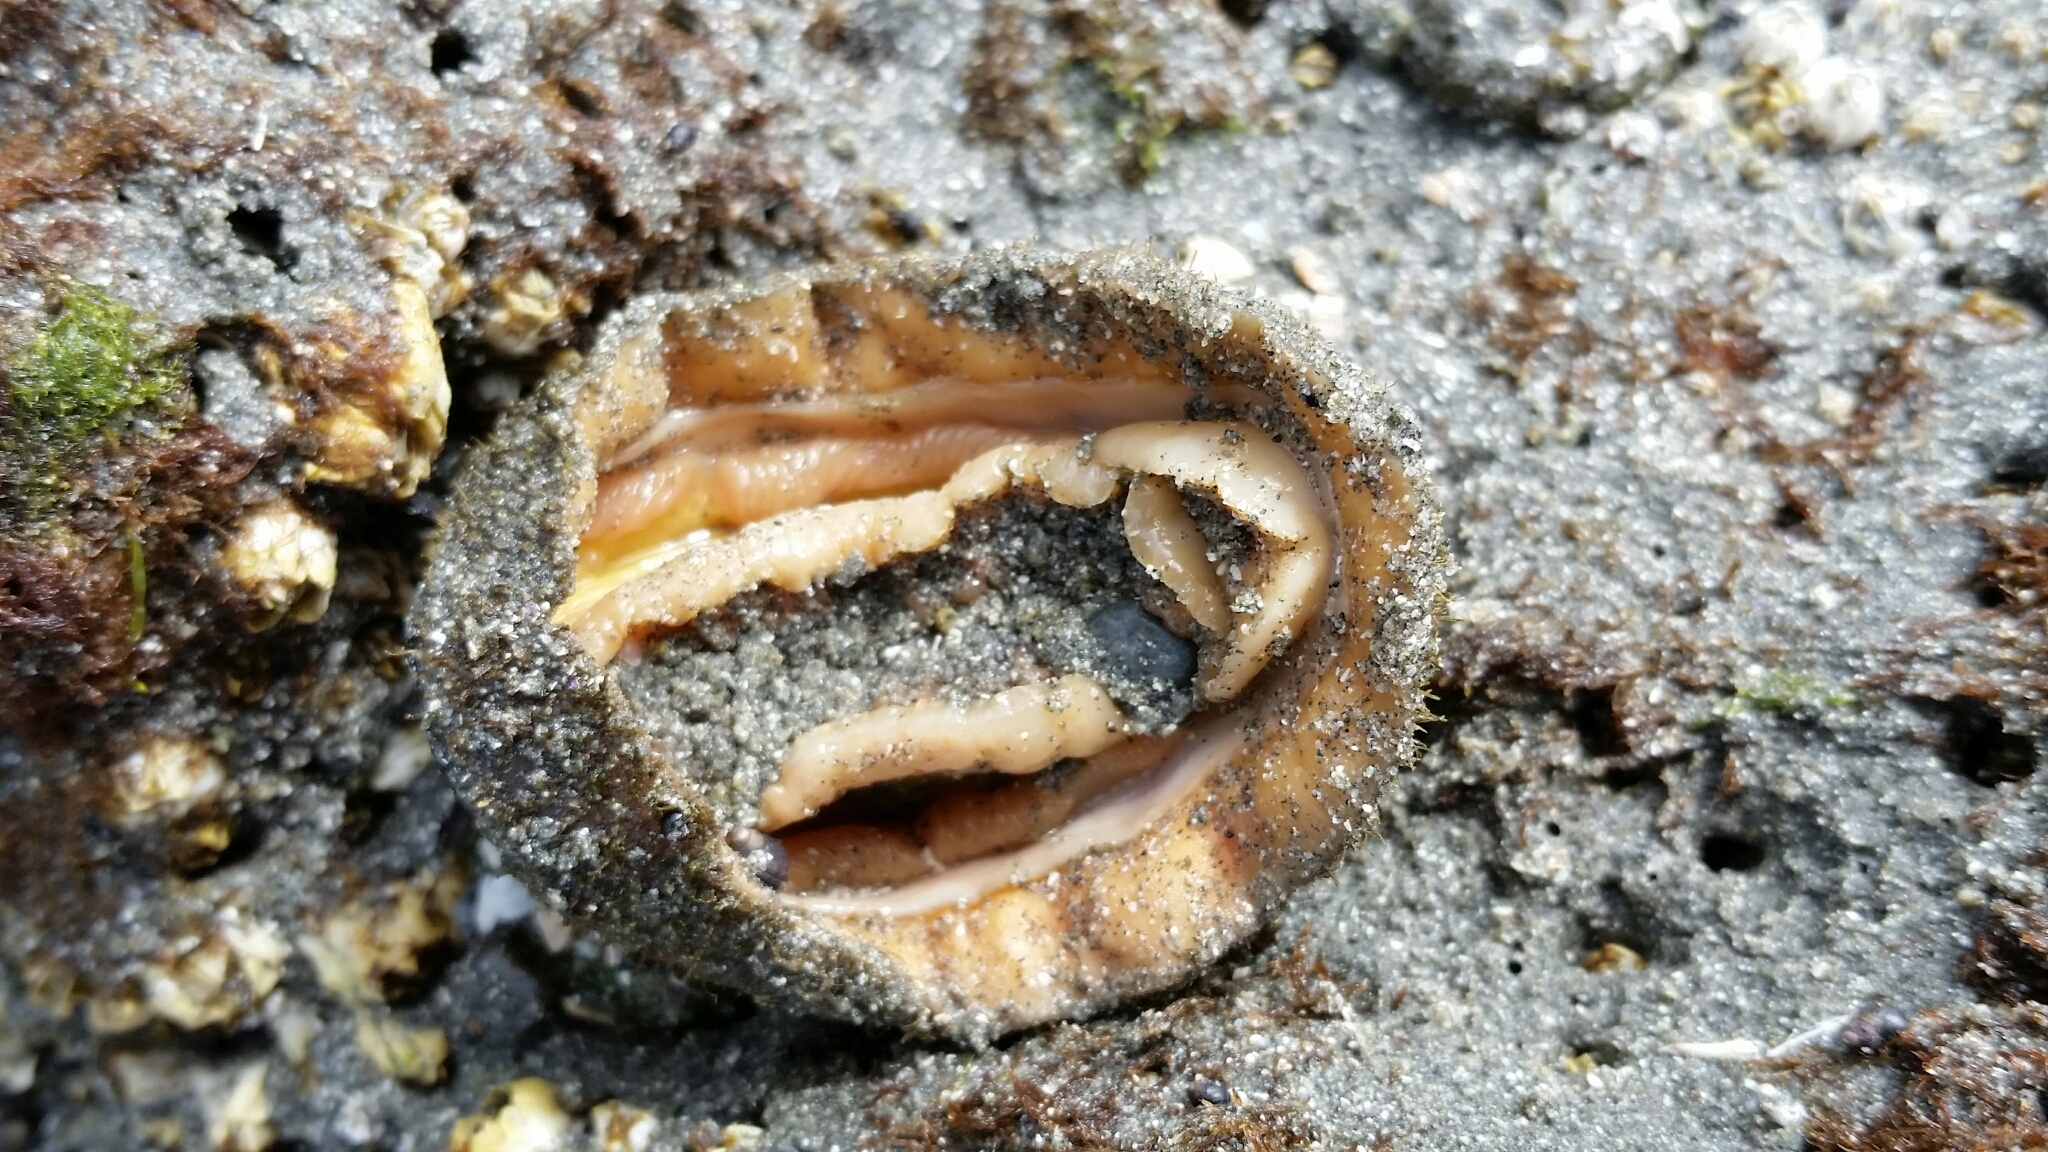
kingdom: Animalia
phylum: Mollusca
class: Polyplacophora
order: Chitonida
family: Mopaliidae
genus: Mopalia
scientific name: Mopalia muscosa
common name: Mossy chiton
